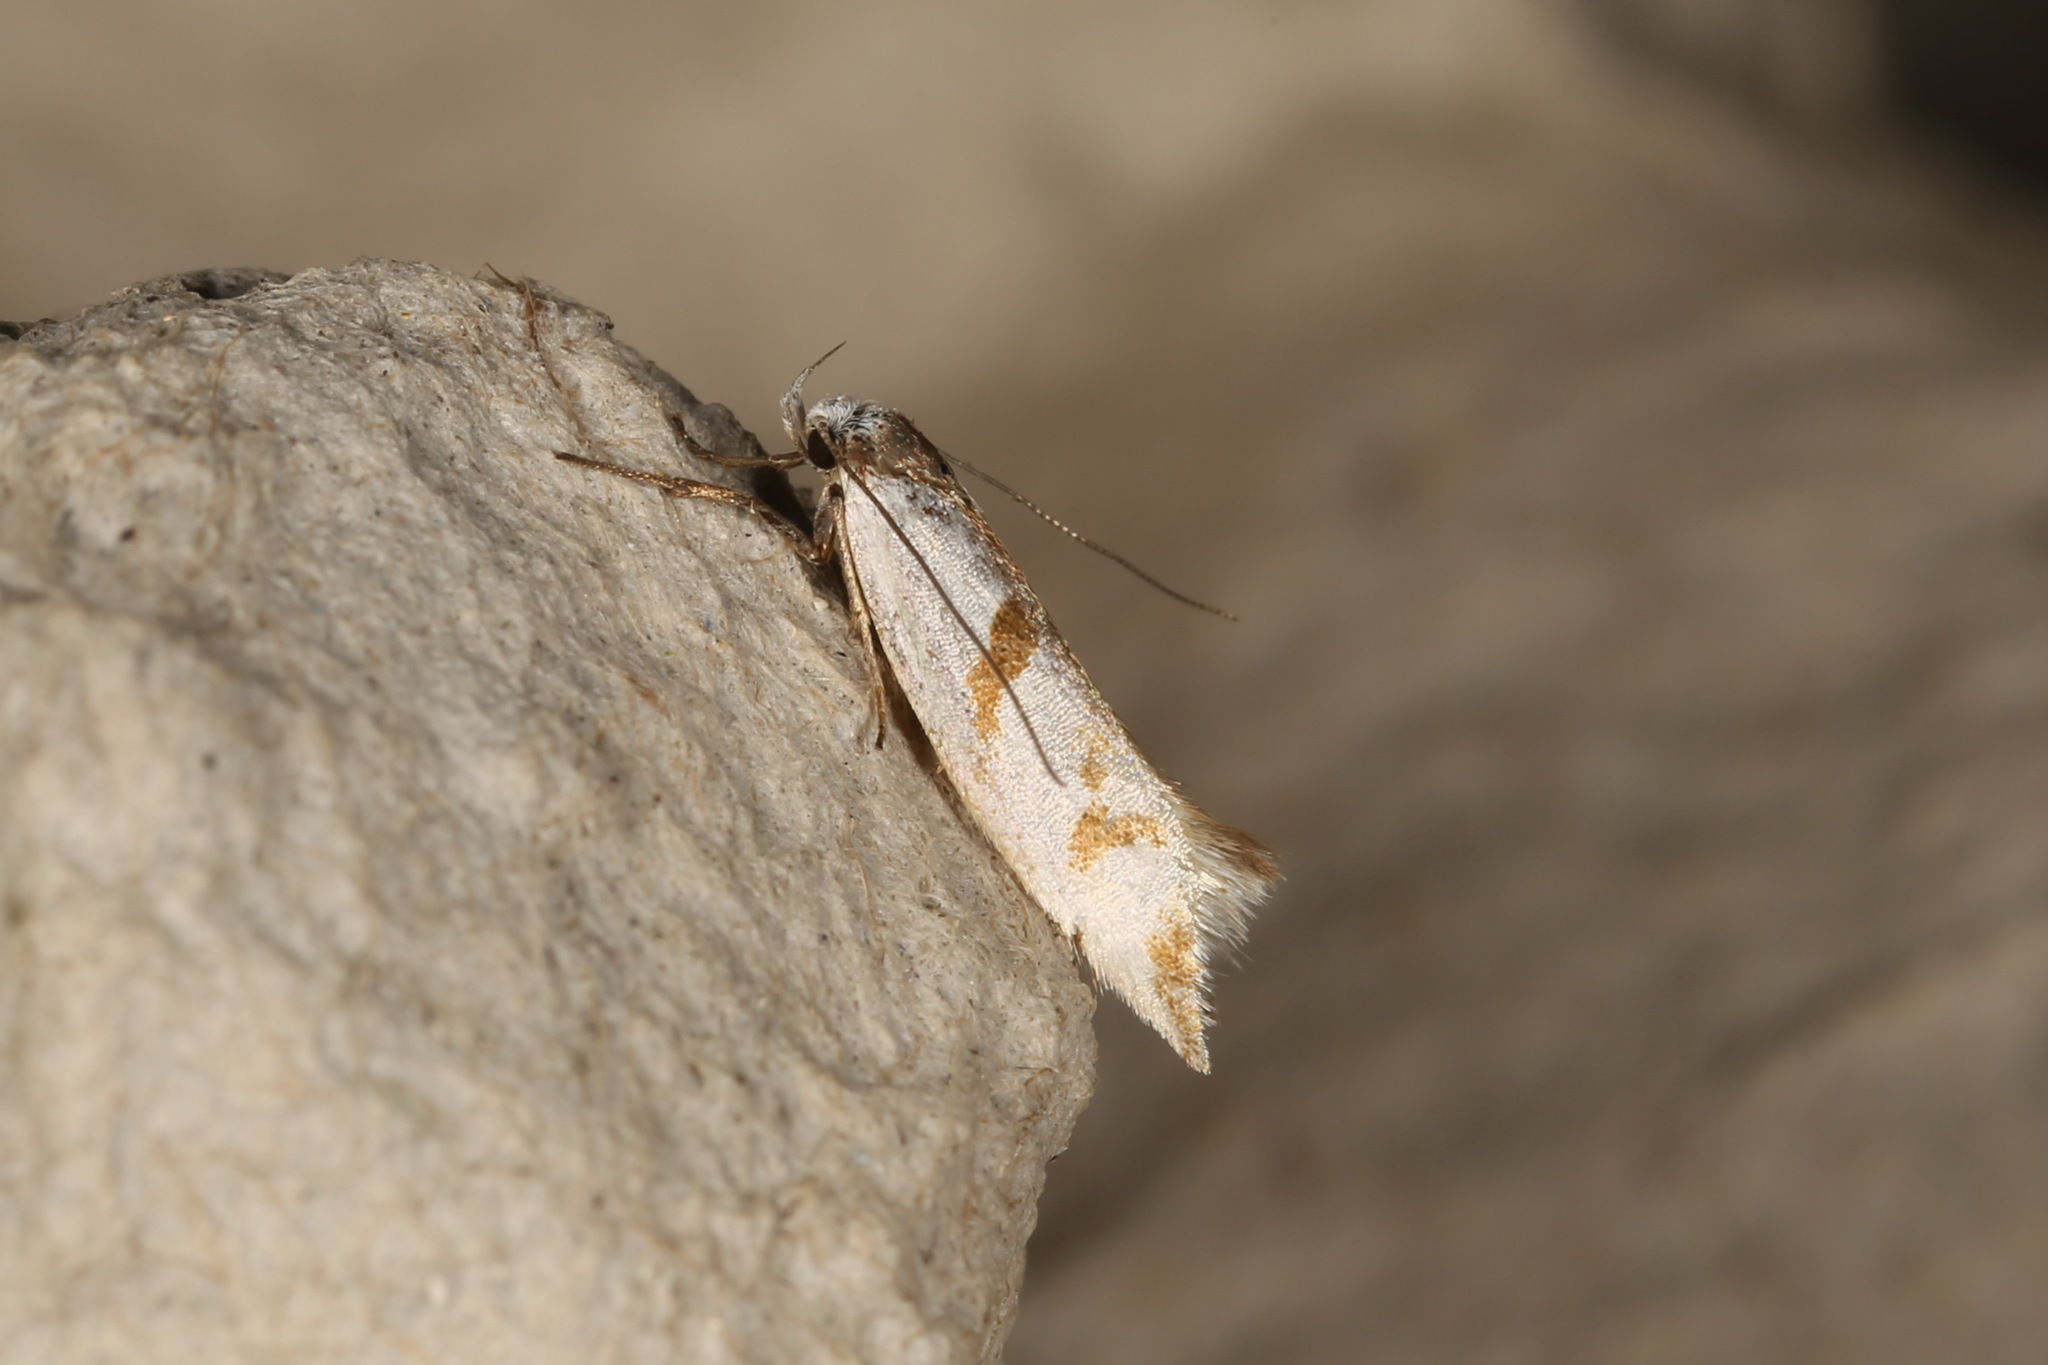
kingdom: Animalia
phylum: Arthropoda
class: Insecta
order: Lepidoptera
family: Oecophoridae
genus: Ocystola
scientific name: Ocystola paulinella
